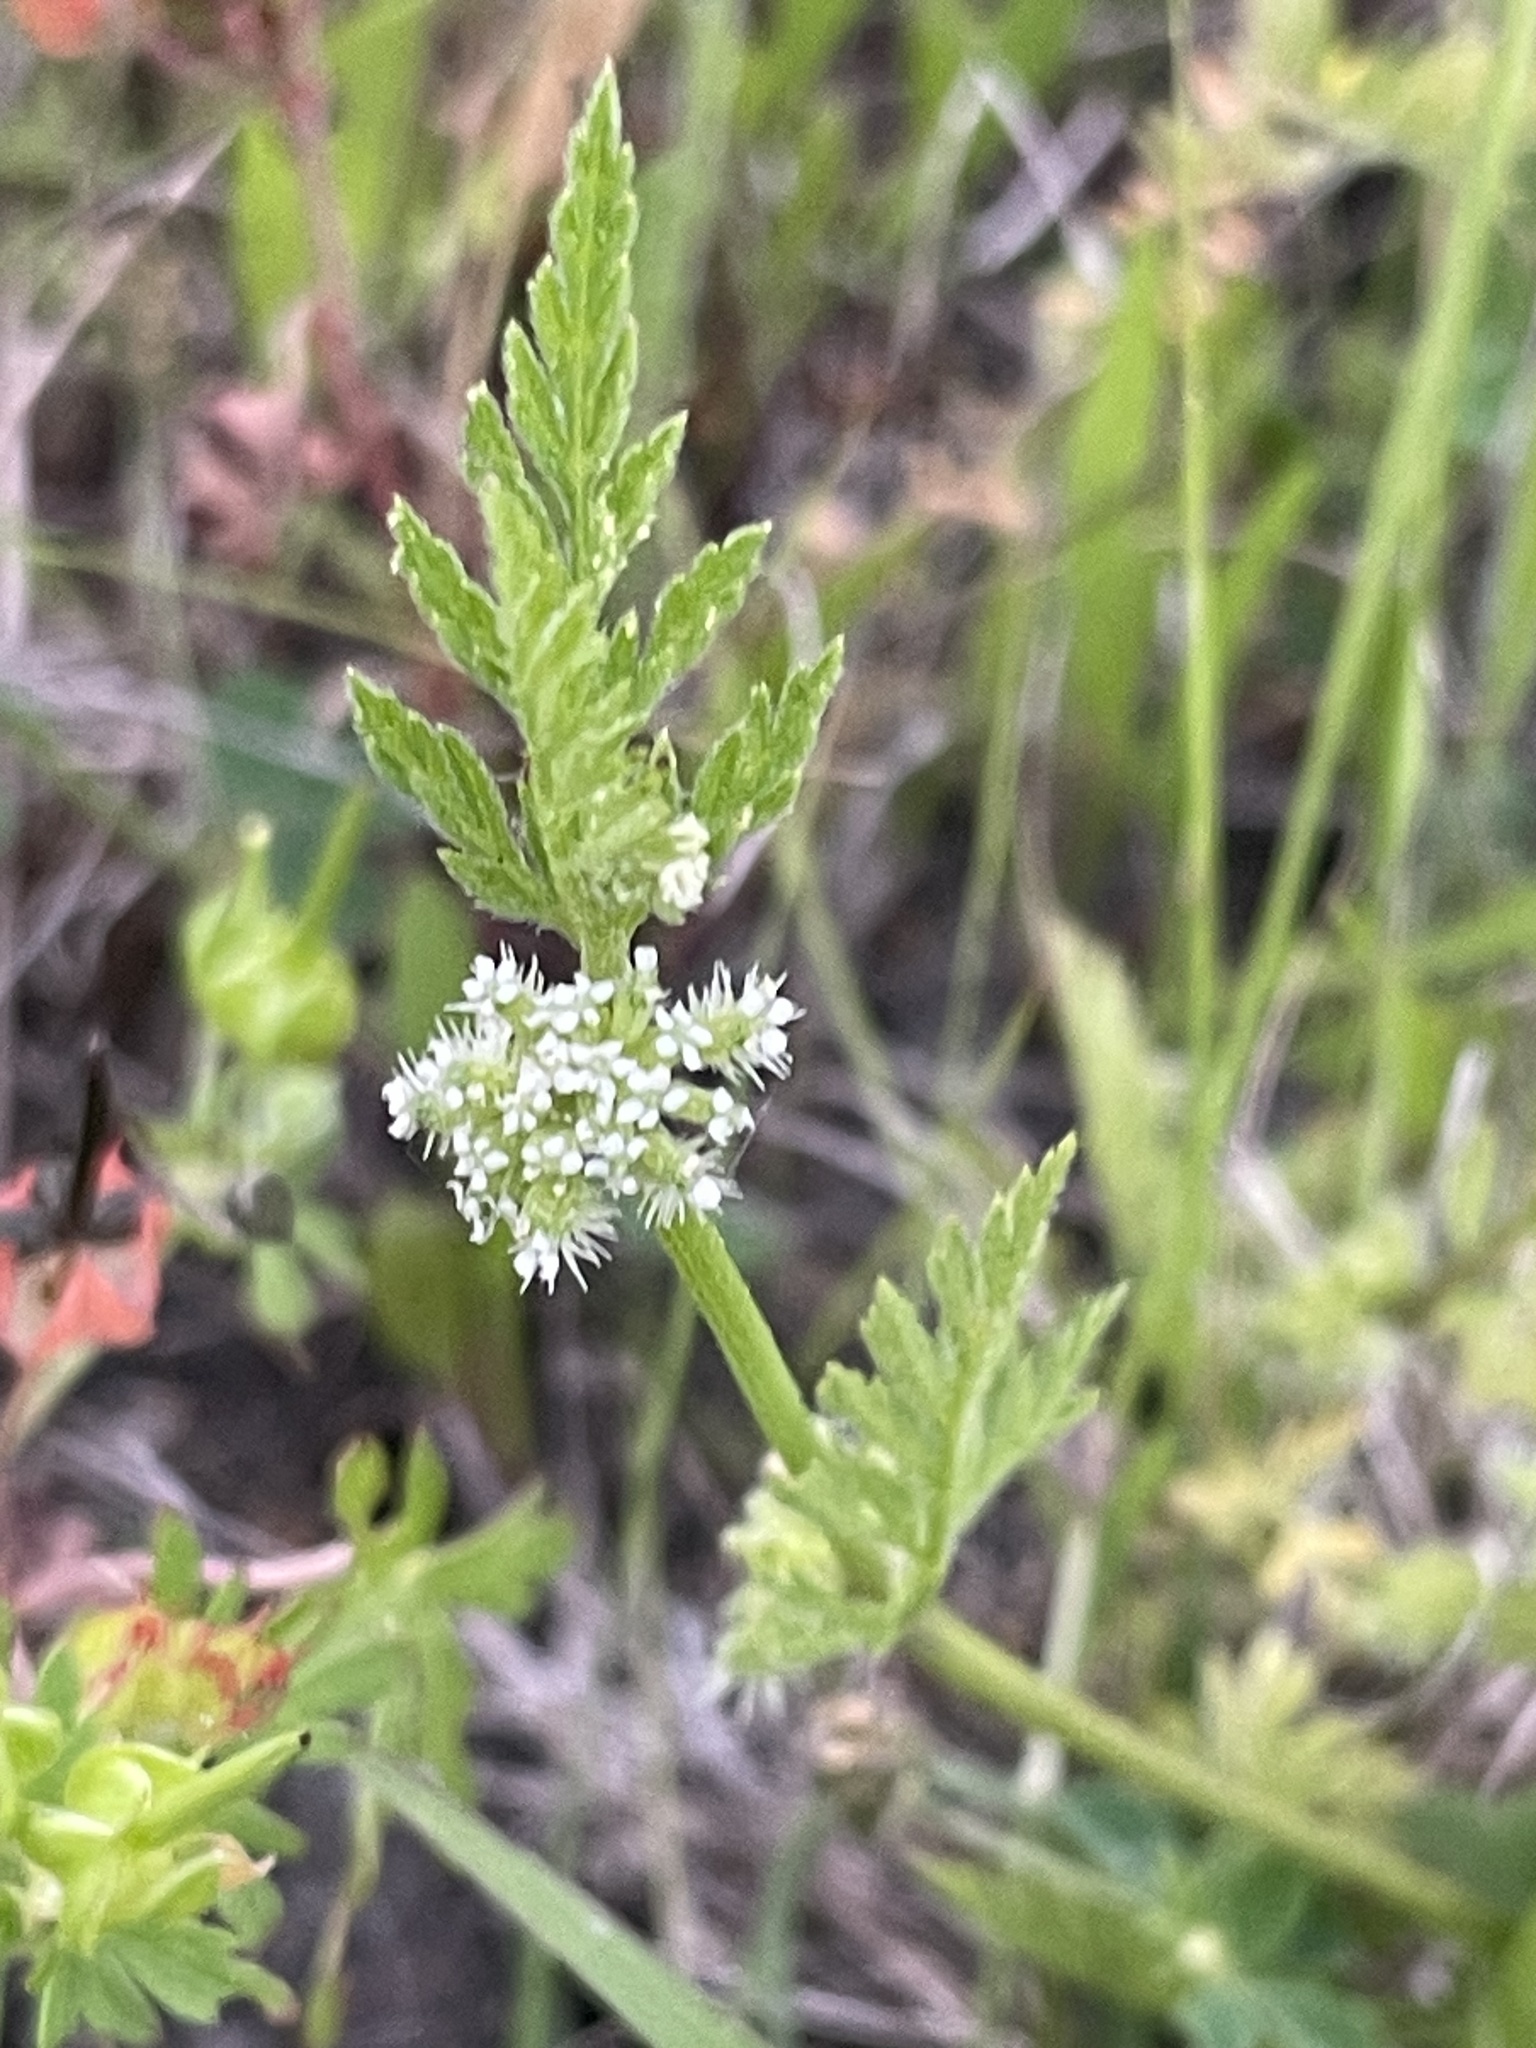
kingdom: Plantae
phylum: Tracheophyta
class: Magnoliopsida
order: Apiales
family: Apiaceae
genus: Torilis
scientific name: Torilis nodosa
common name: Knotted hedge-parsley
